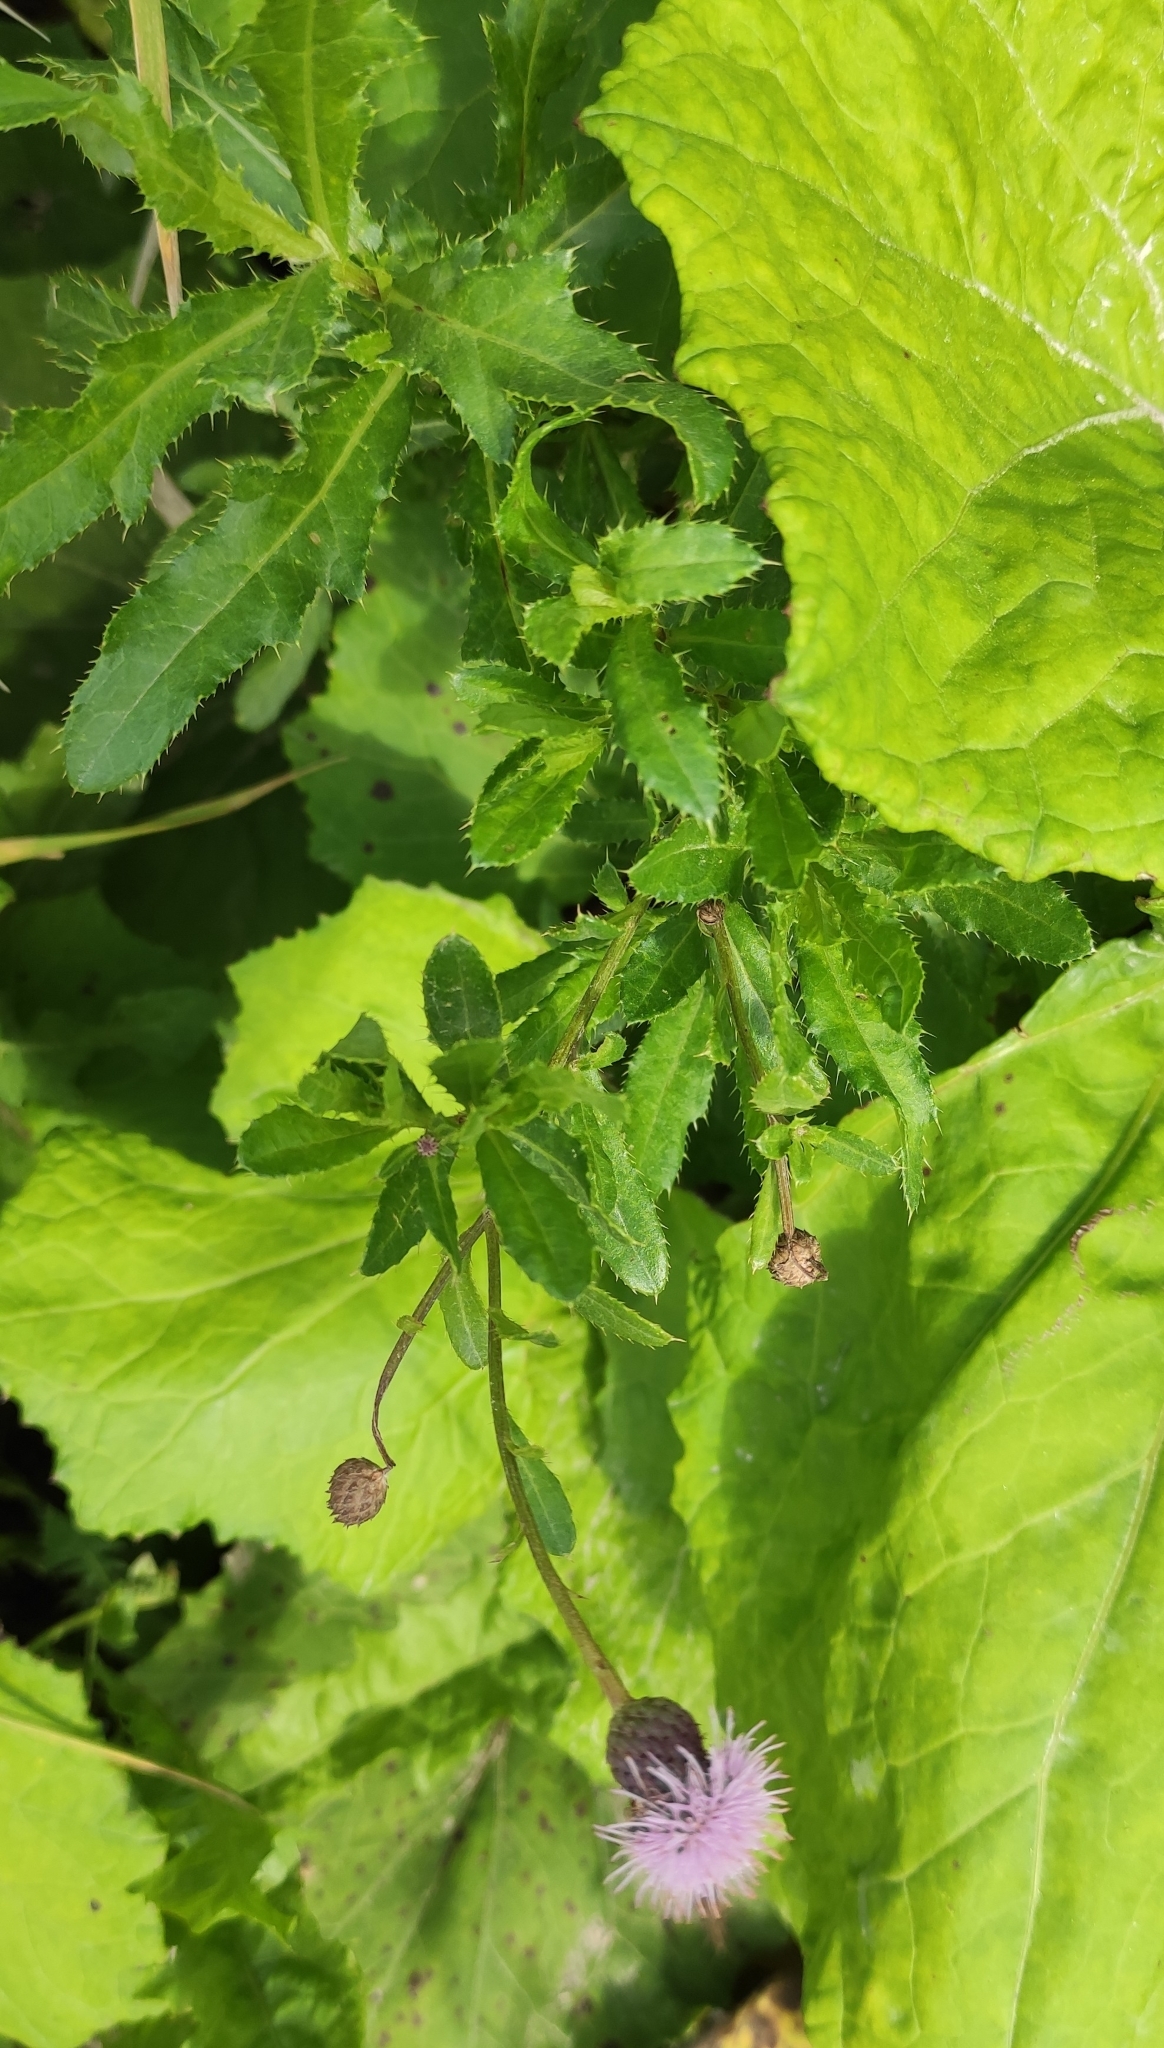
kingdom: Plantae
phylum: Tracheophyta
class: Magnoliopsida
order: Asterales
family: Asteraceae
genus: Cirsium
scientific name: Cirsium arvense
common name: Creeping thistle
